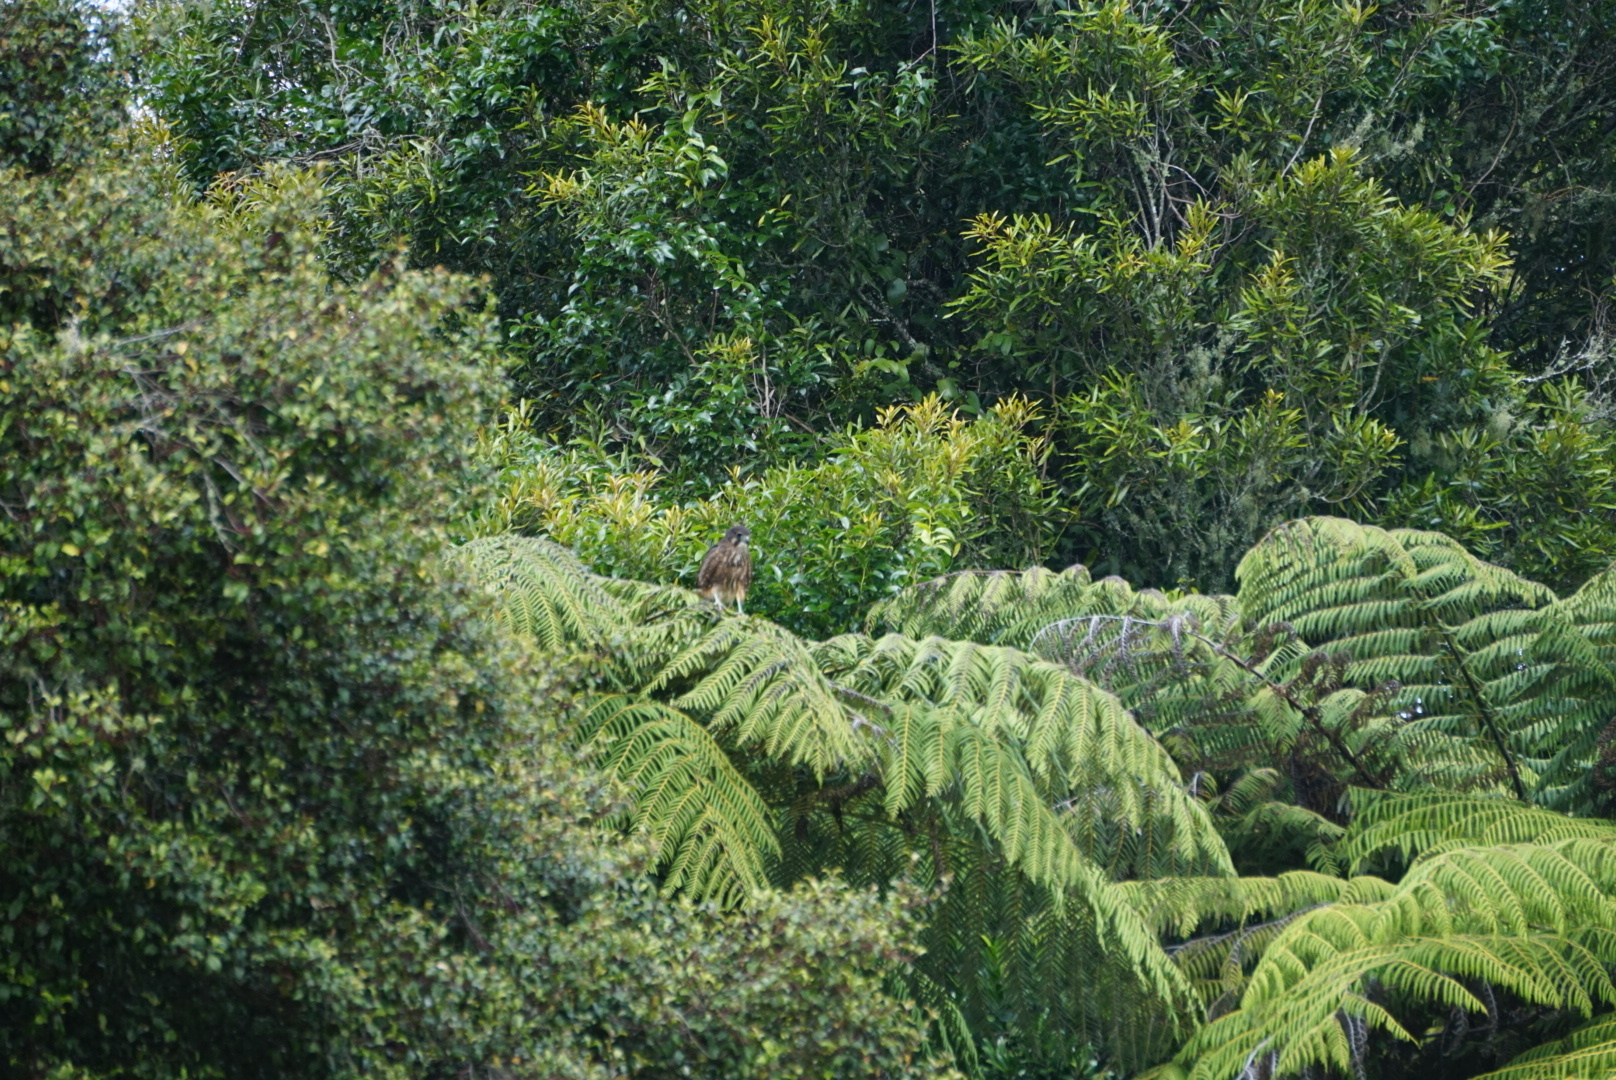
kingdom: Animalia
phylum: Chordata
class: Aves
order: Falconiformes
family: Falconidae
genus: Falco
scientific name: Falco novaeseelandiae
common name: New zealand falcon
